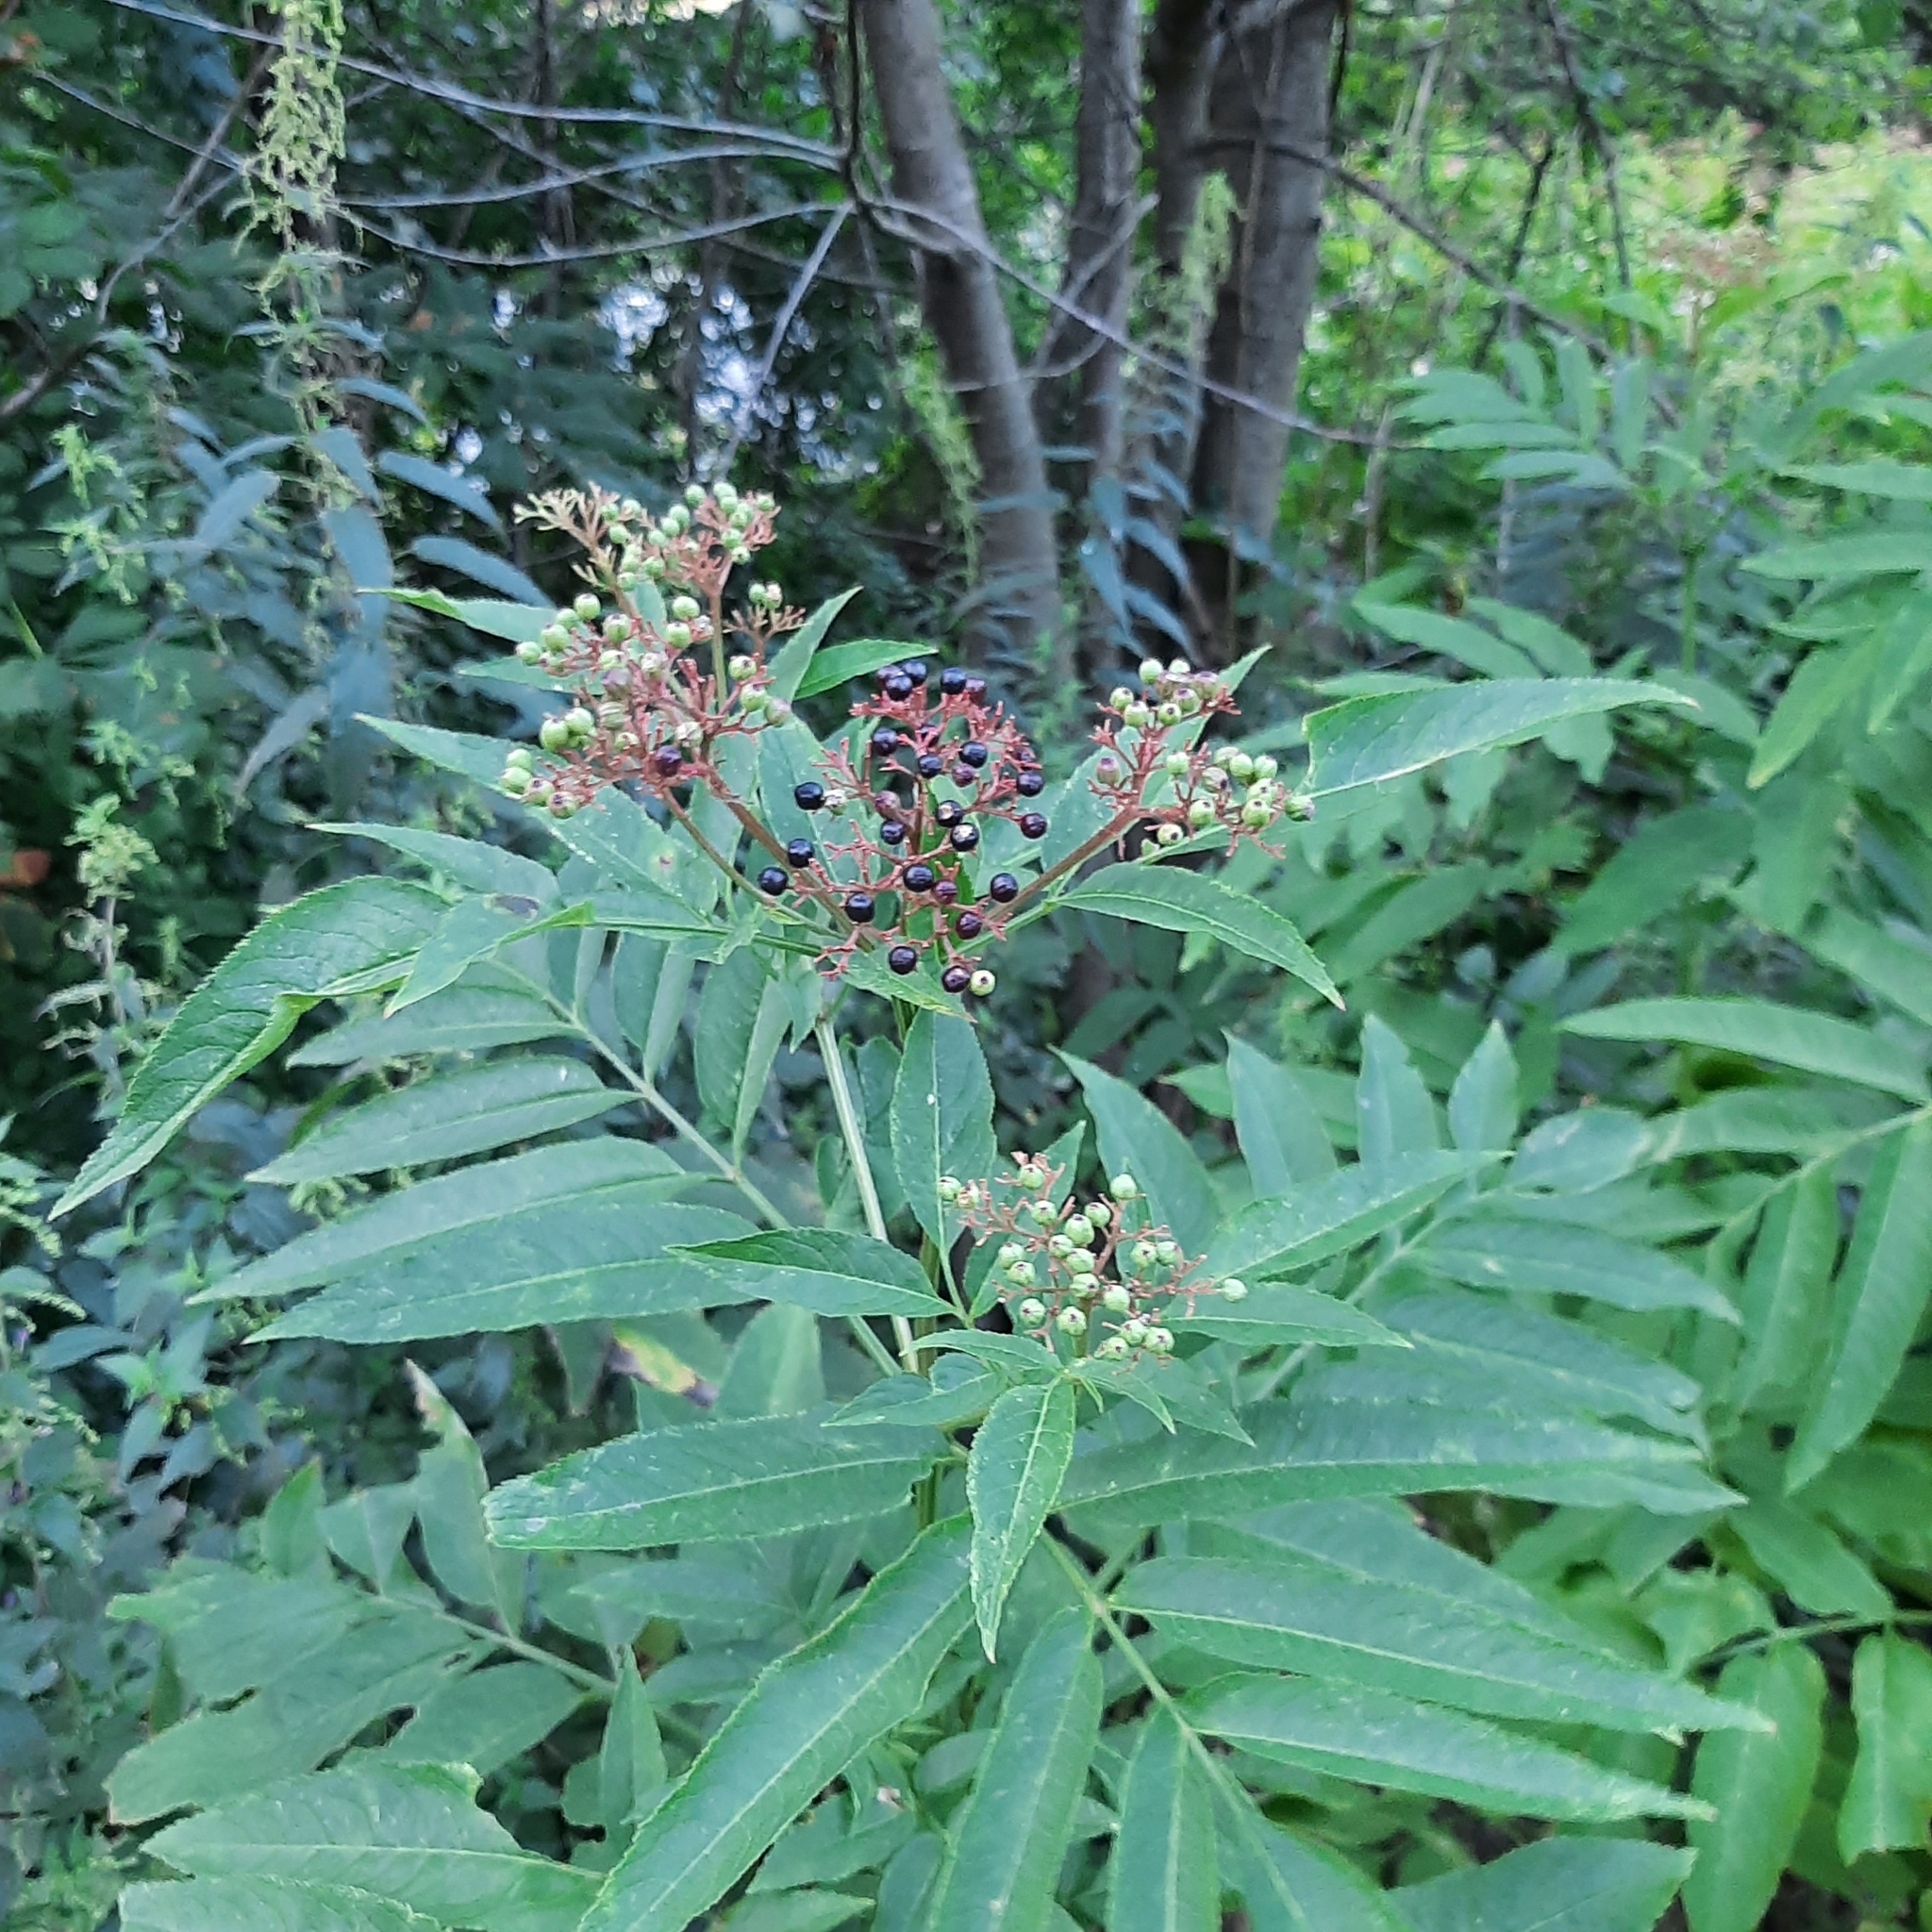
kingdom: Plantae
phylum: Tracheophyta
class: Magnoliopsida
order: Dipsacales
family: Viburnaceae
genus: Sambucus
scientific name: Sambucus ebulus
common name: Dwarf elder
